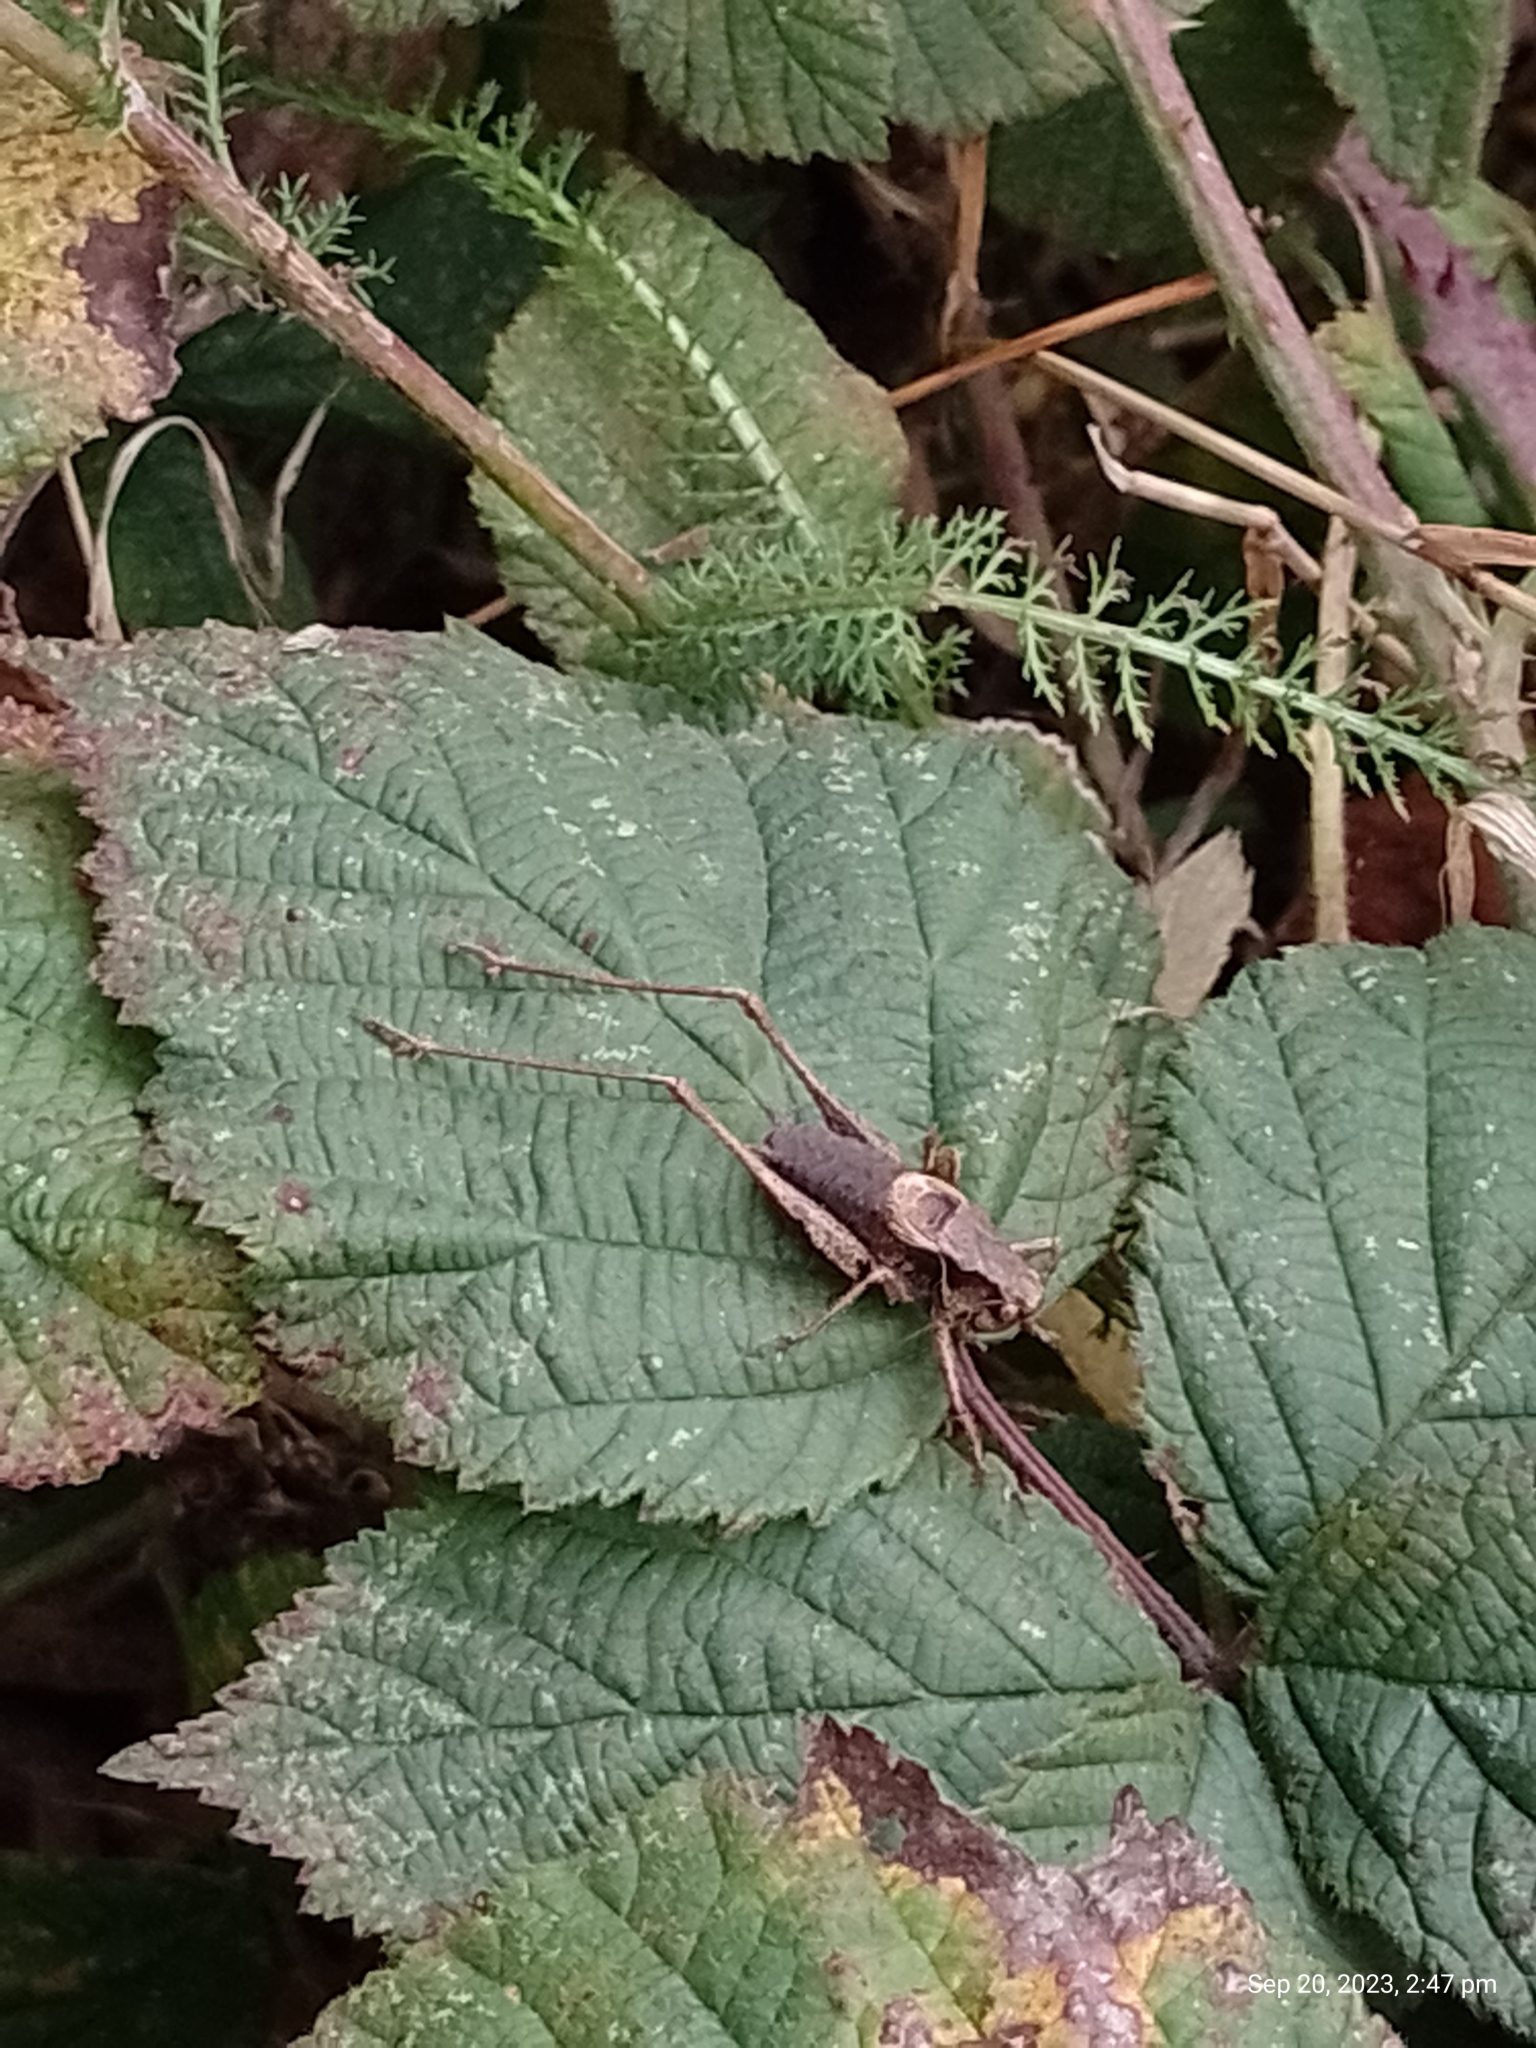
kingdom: Animalia
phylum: Arthropoda
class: Insecta
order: Orthoptera
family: Tettigoniidae
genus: Pholidoptera
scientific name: Pholidoptera griseoaptera
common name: Dark bush-cricket
